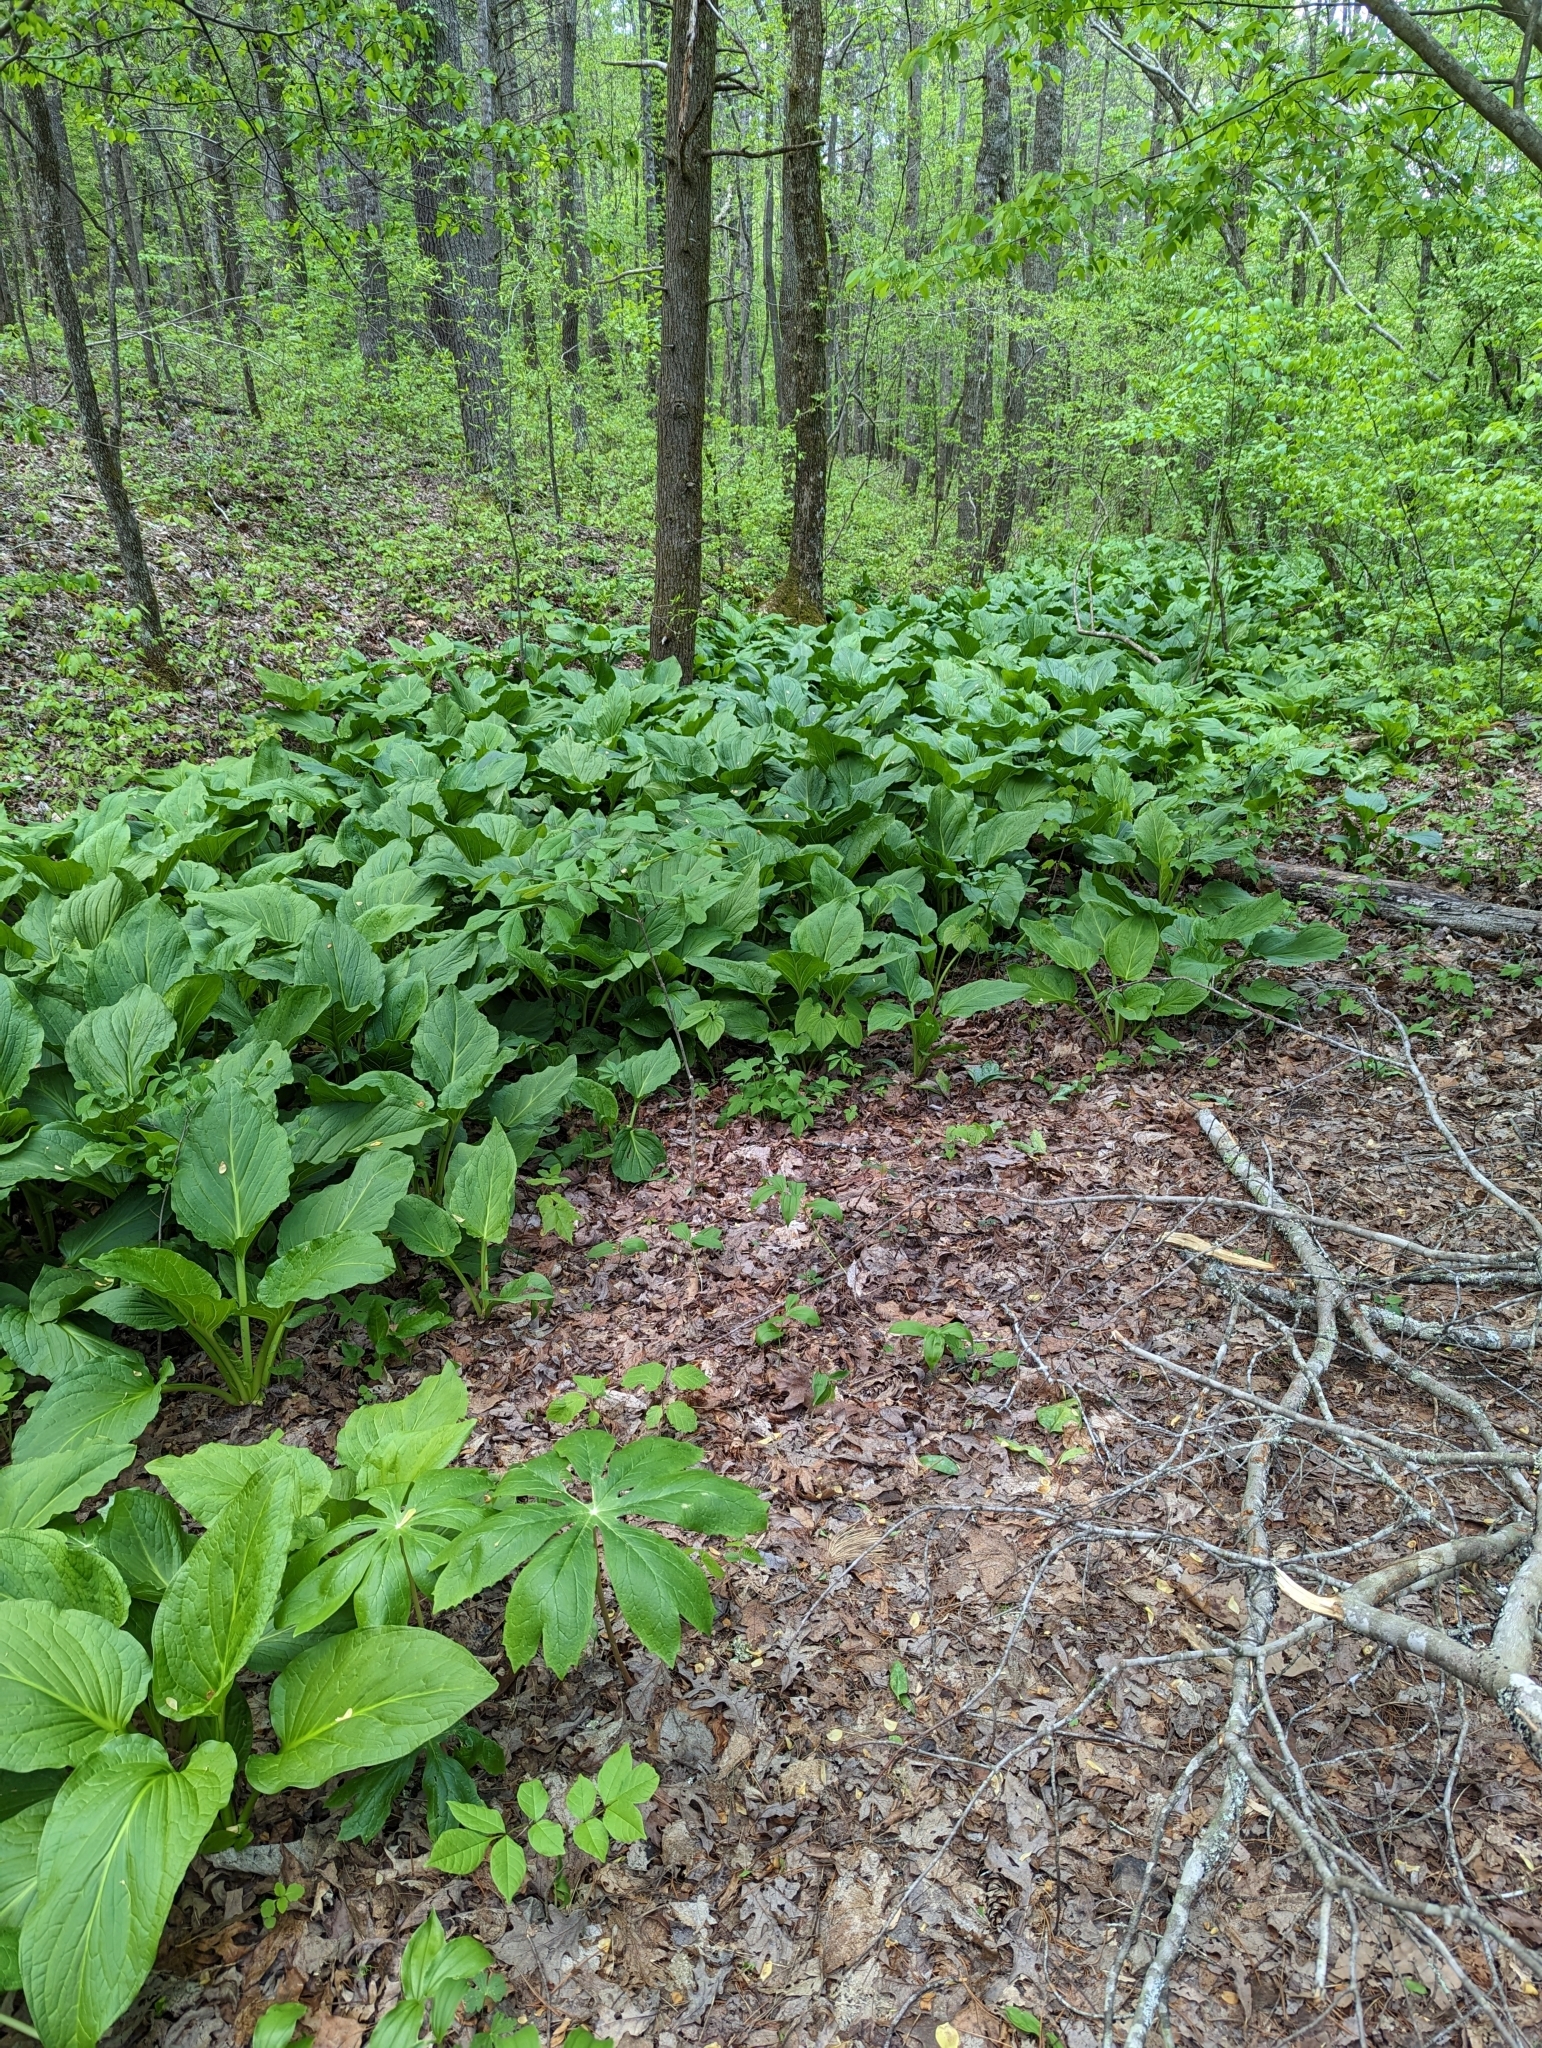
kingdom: Plantae
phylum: Tracheophyta
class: Liliopsida
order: Alismatales
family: Araceae
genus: Symplocarpus
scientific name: Symplocarpus foetidus
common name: Eastern skunk cabbage
